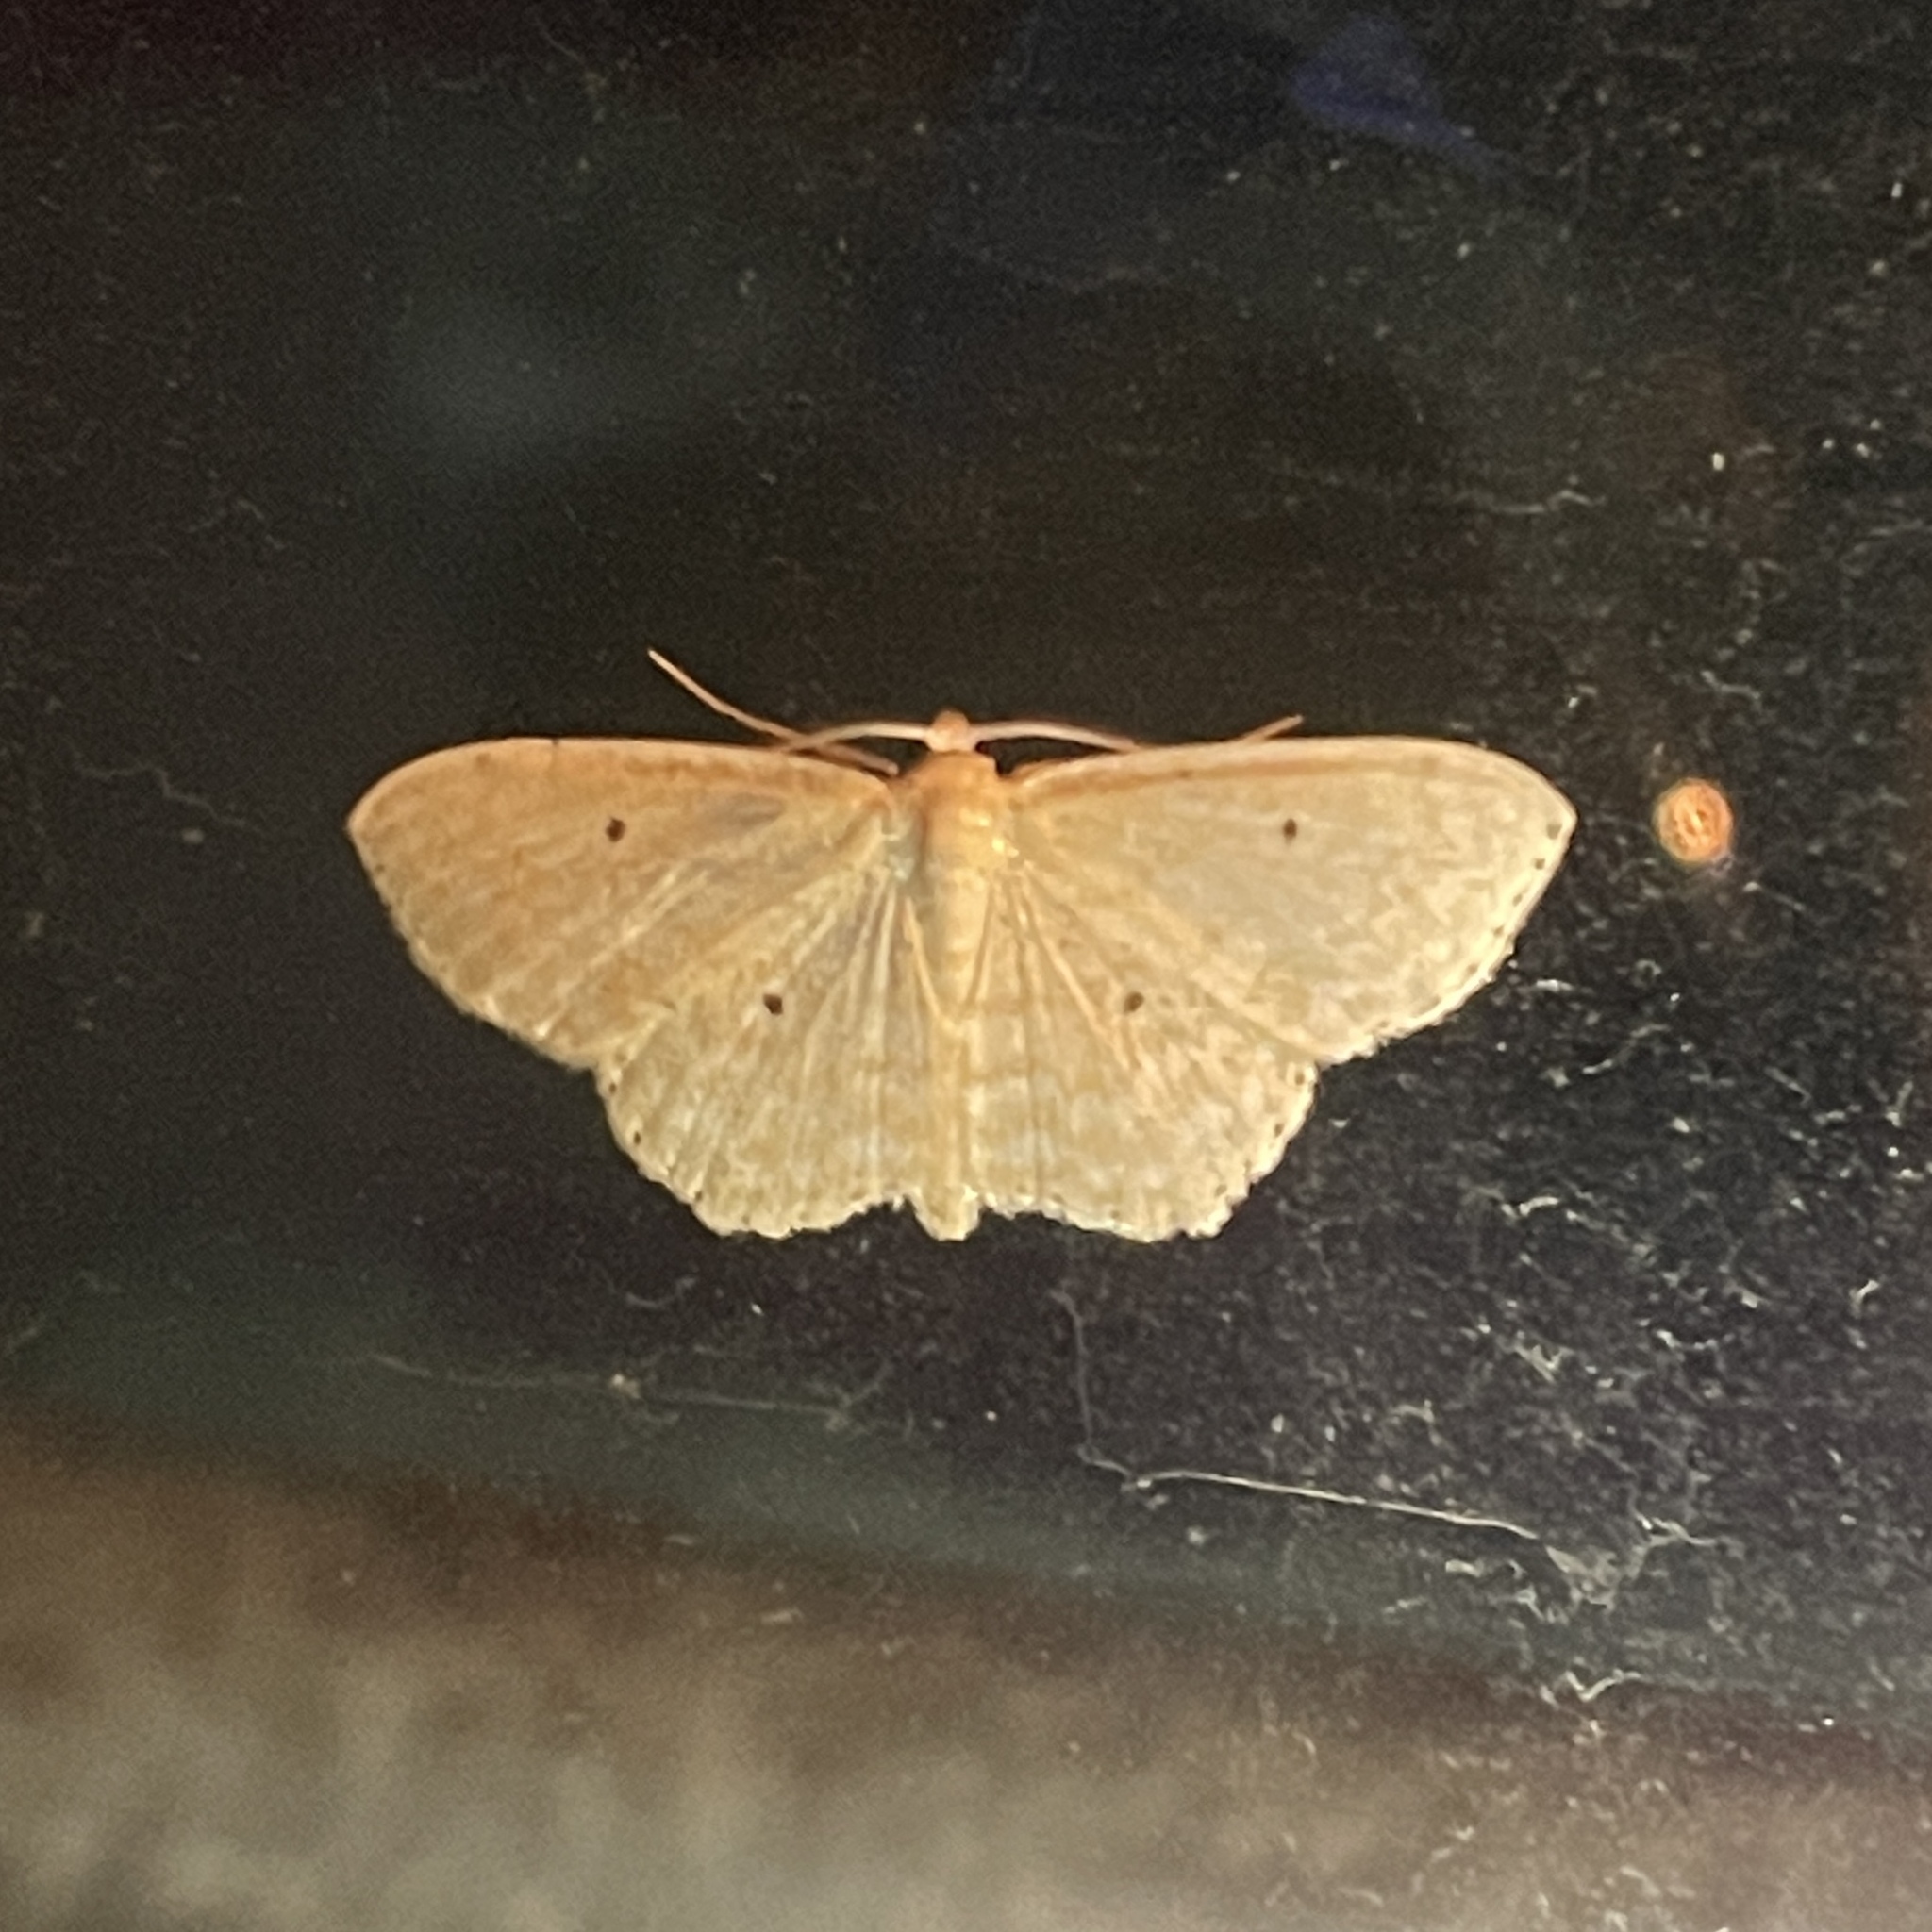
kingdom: Animalia
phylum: Arthropoda
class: Insecta
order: Lepidoptera
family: Geometridae
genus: Scopula
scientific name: Scopula apparitaria
